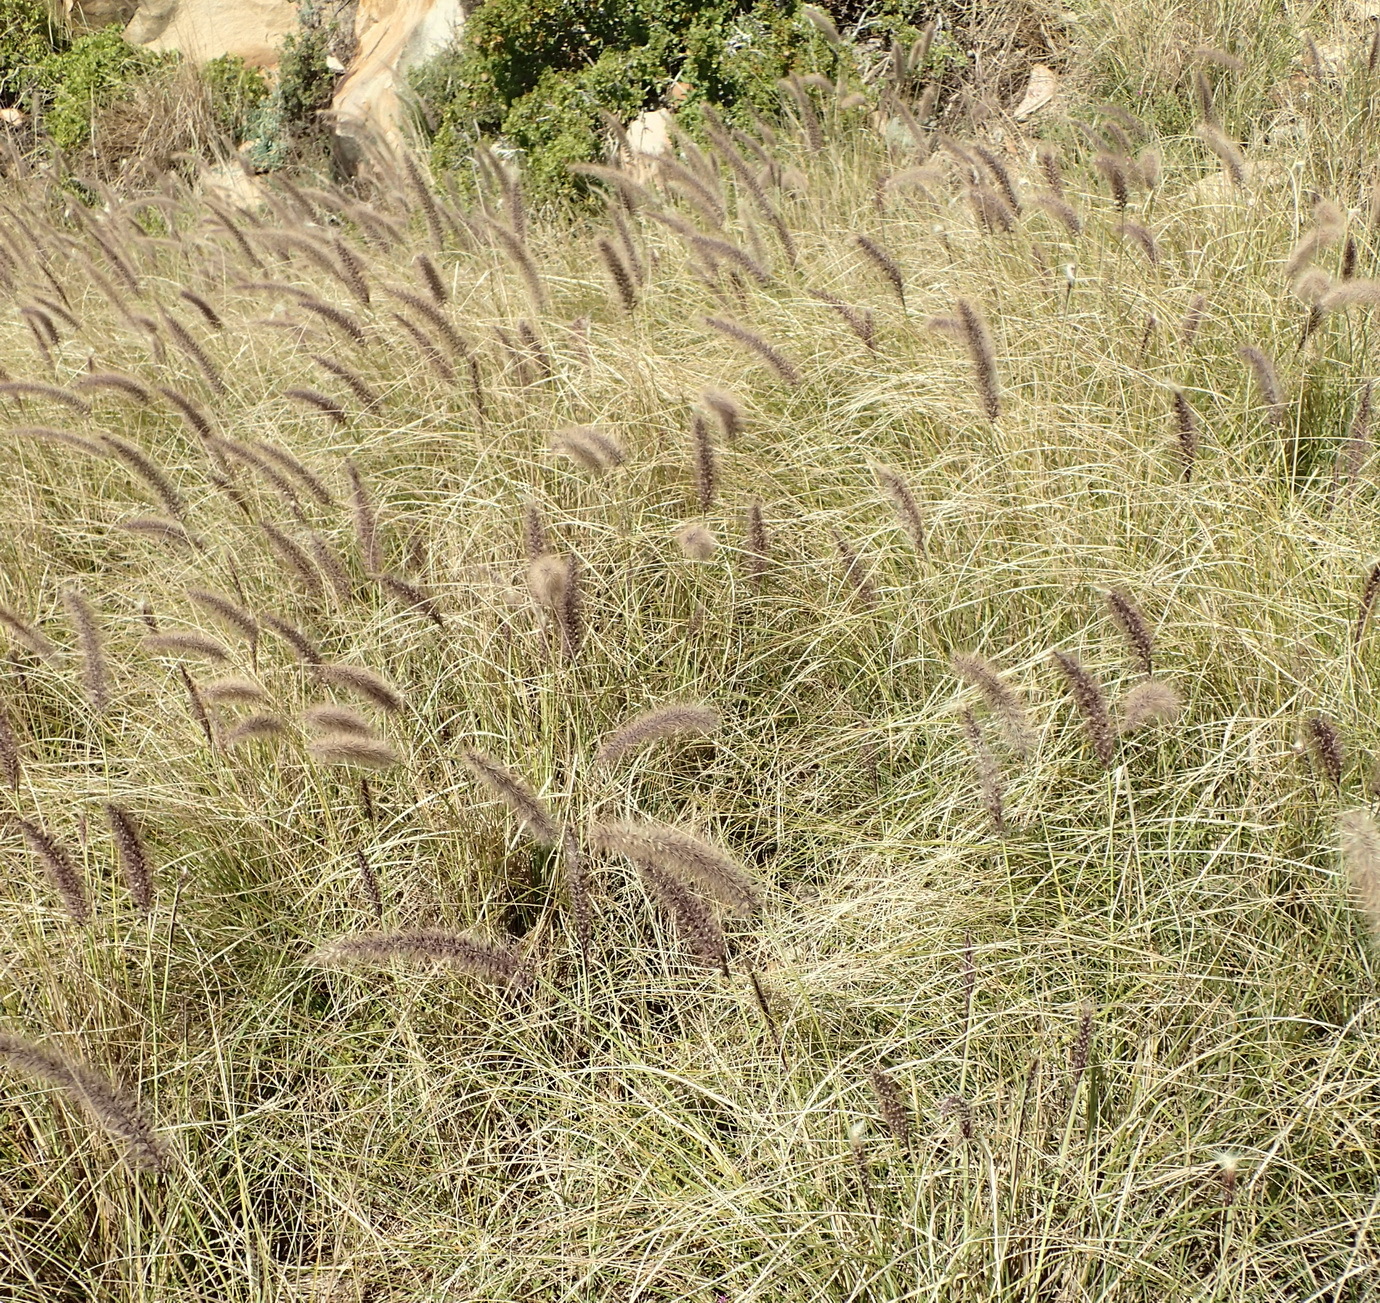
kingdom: Plantae
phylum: Tracheophyta
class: Liliopsida
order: Poales
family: Poaceae
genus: Cenchrus
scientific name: Cenchrus setaceus
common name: Crimson fountaingrass
